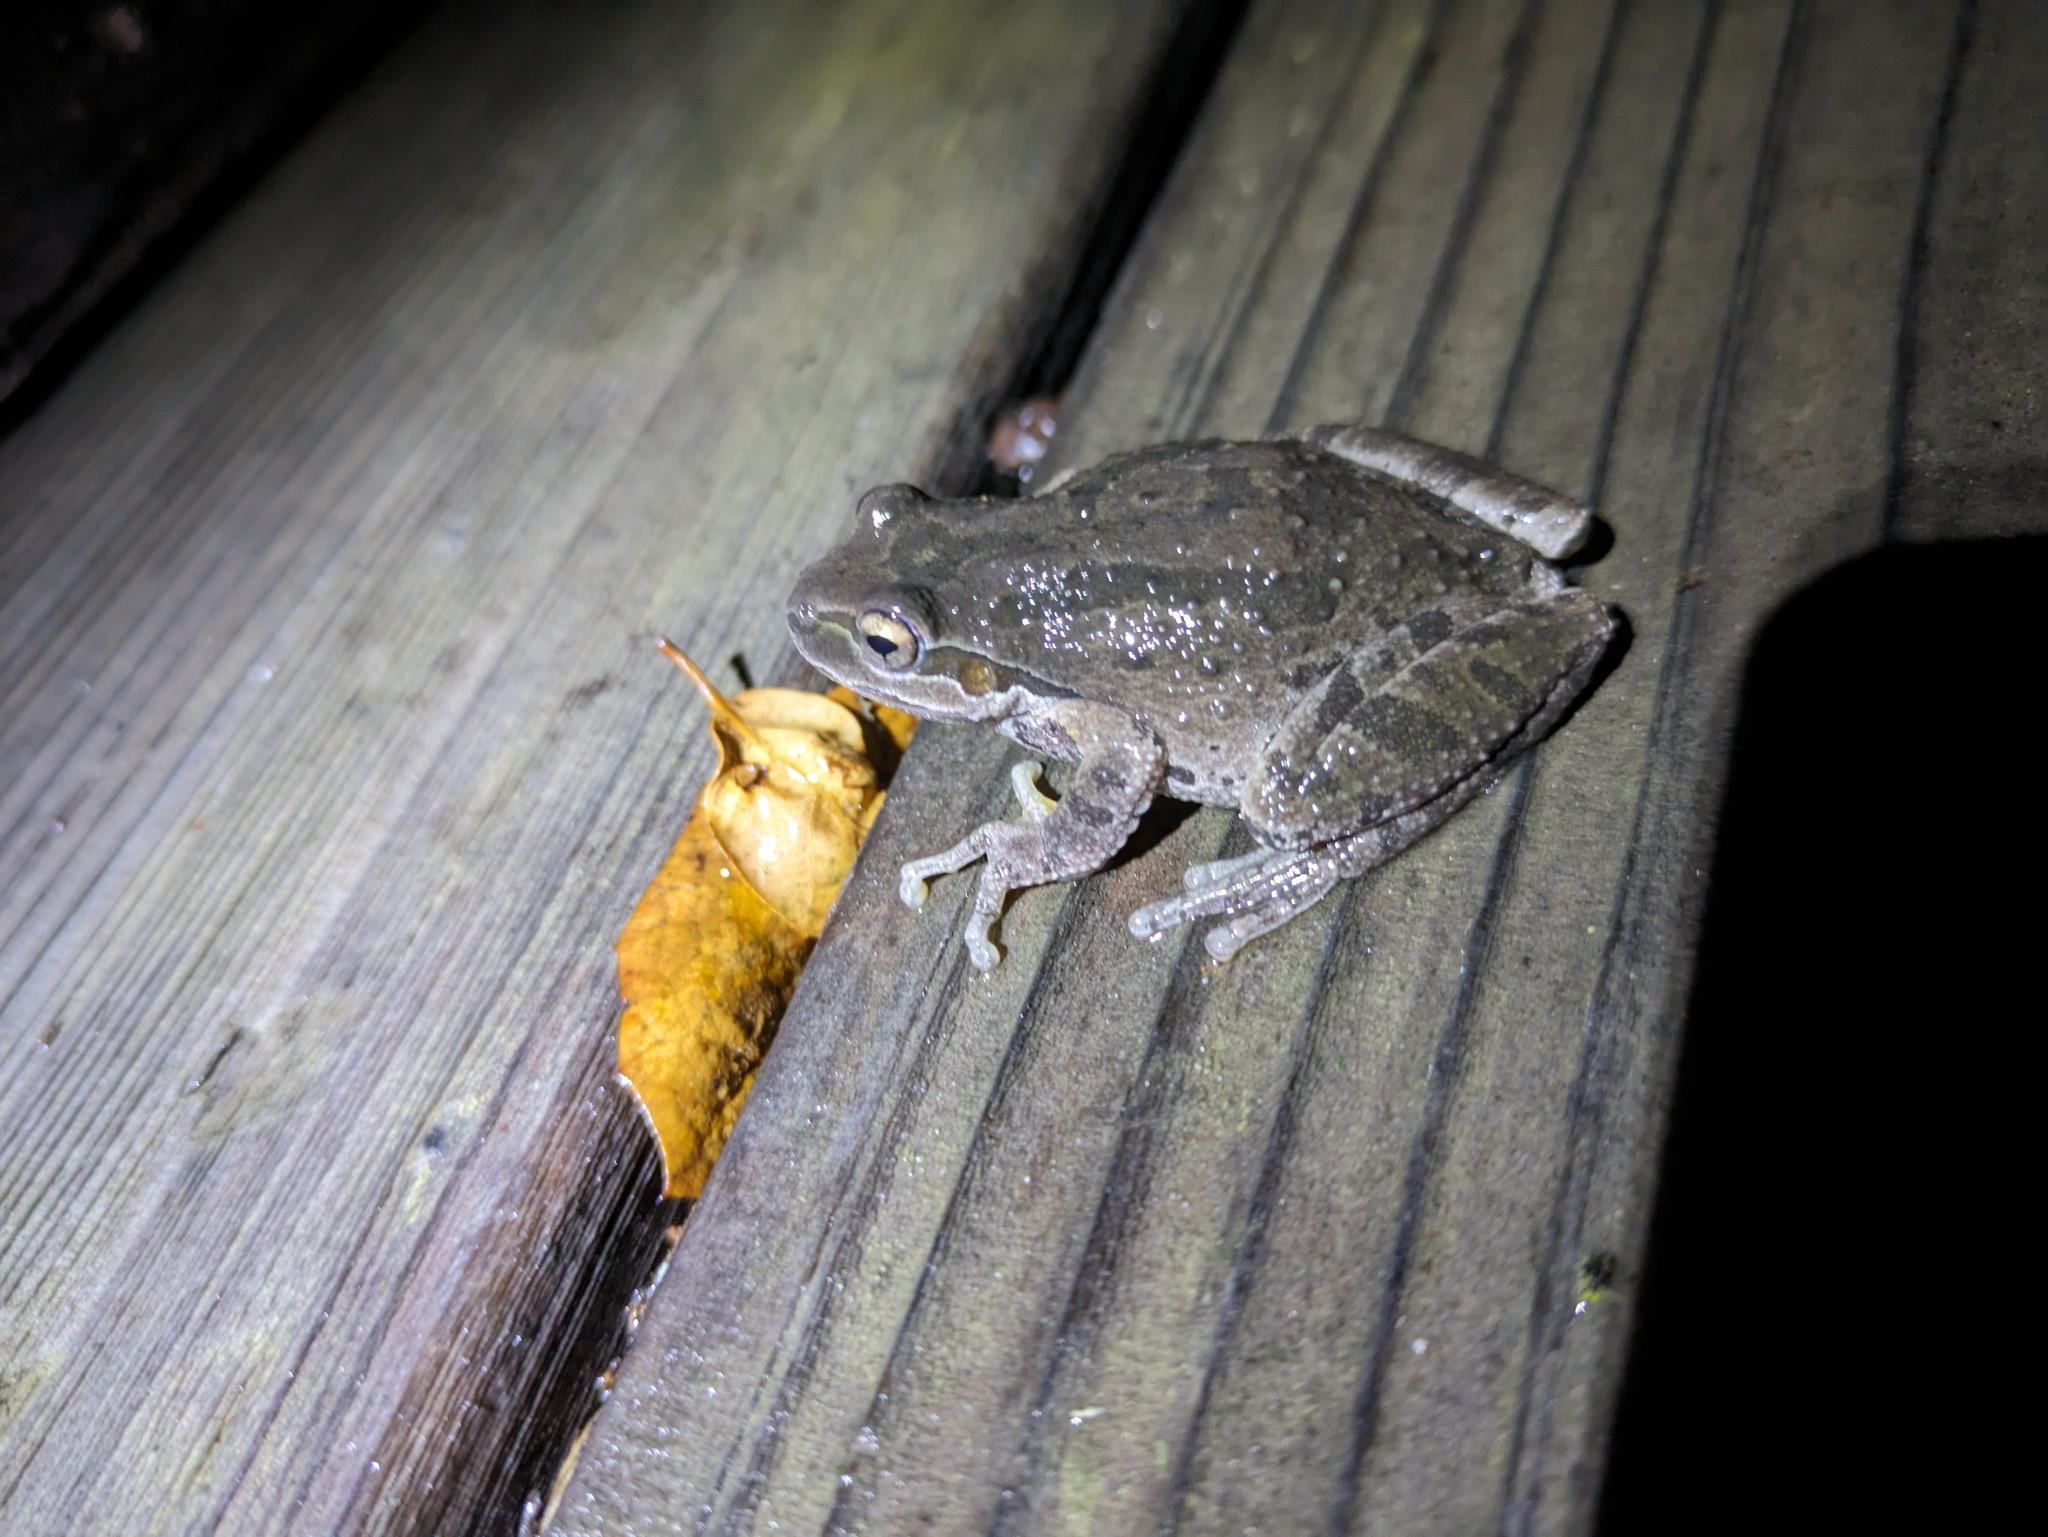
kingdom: Animalia
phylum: Chordata
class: Amphibia
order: Anura
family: Hylidae
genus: Pseudacris
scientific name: Pseudacris regilla
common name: Pacific chorus frog
